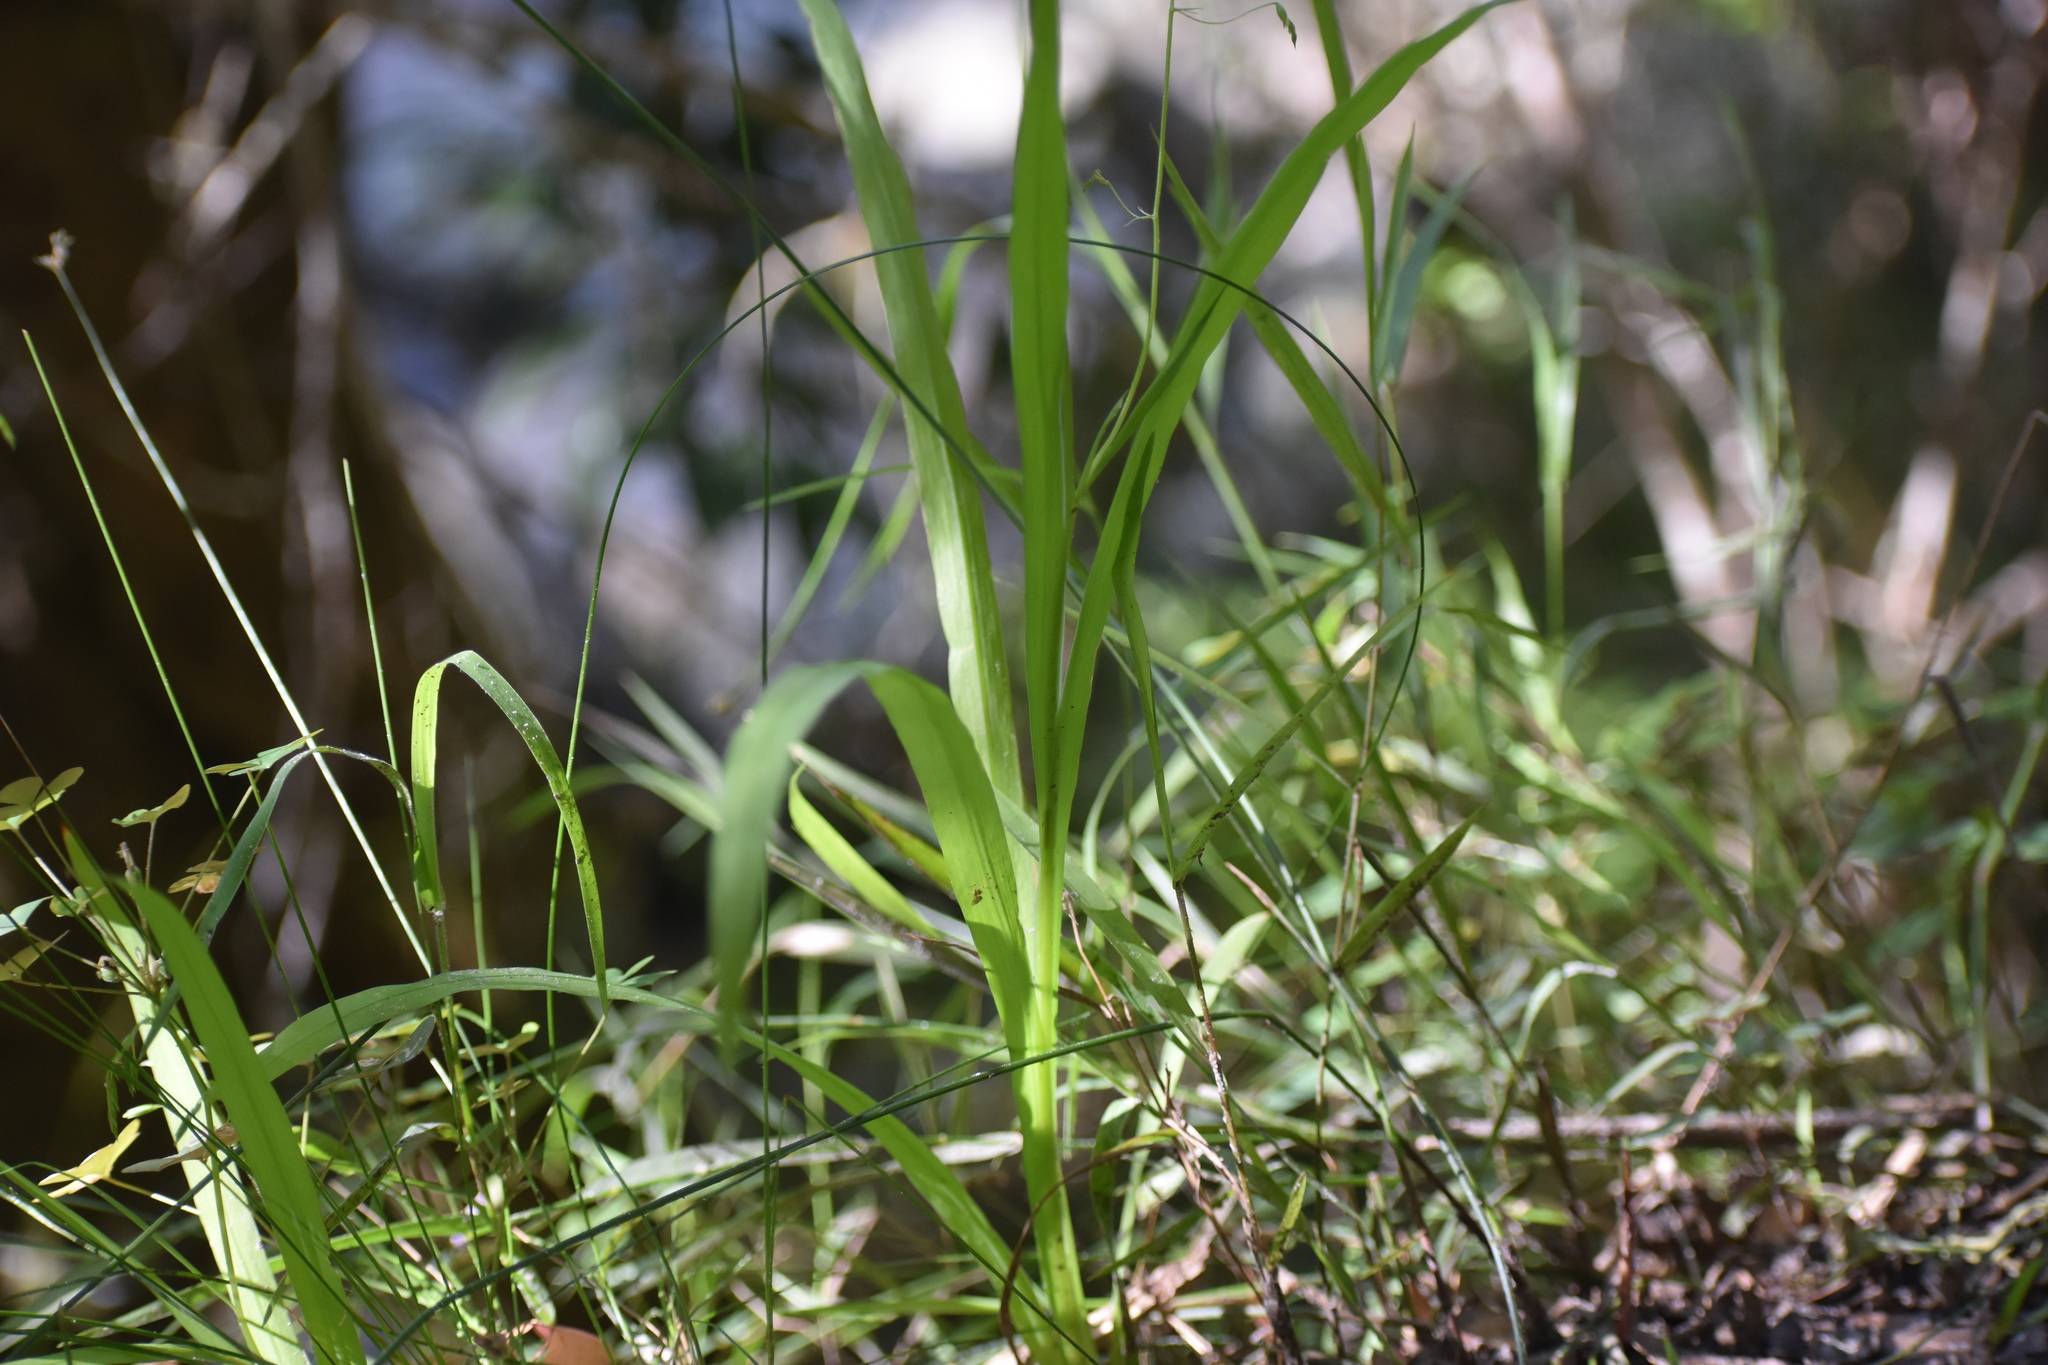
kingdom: Plantae
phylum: Tracheophyta
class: Liliopsida
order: Asparagales
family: Iridaceae
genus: Melasphaerula
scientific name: Melasphaerula graminea
